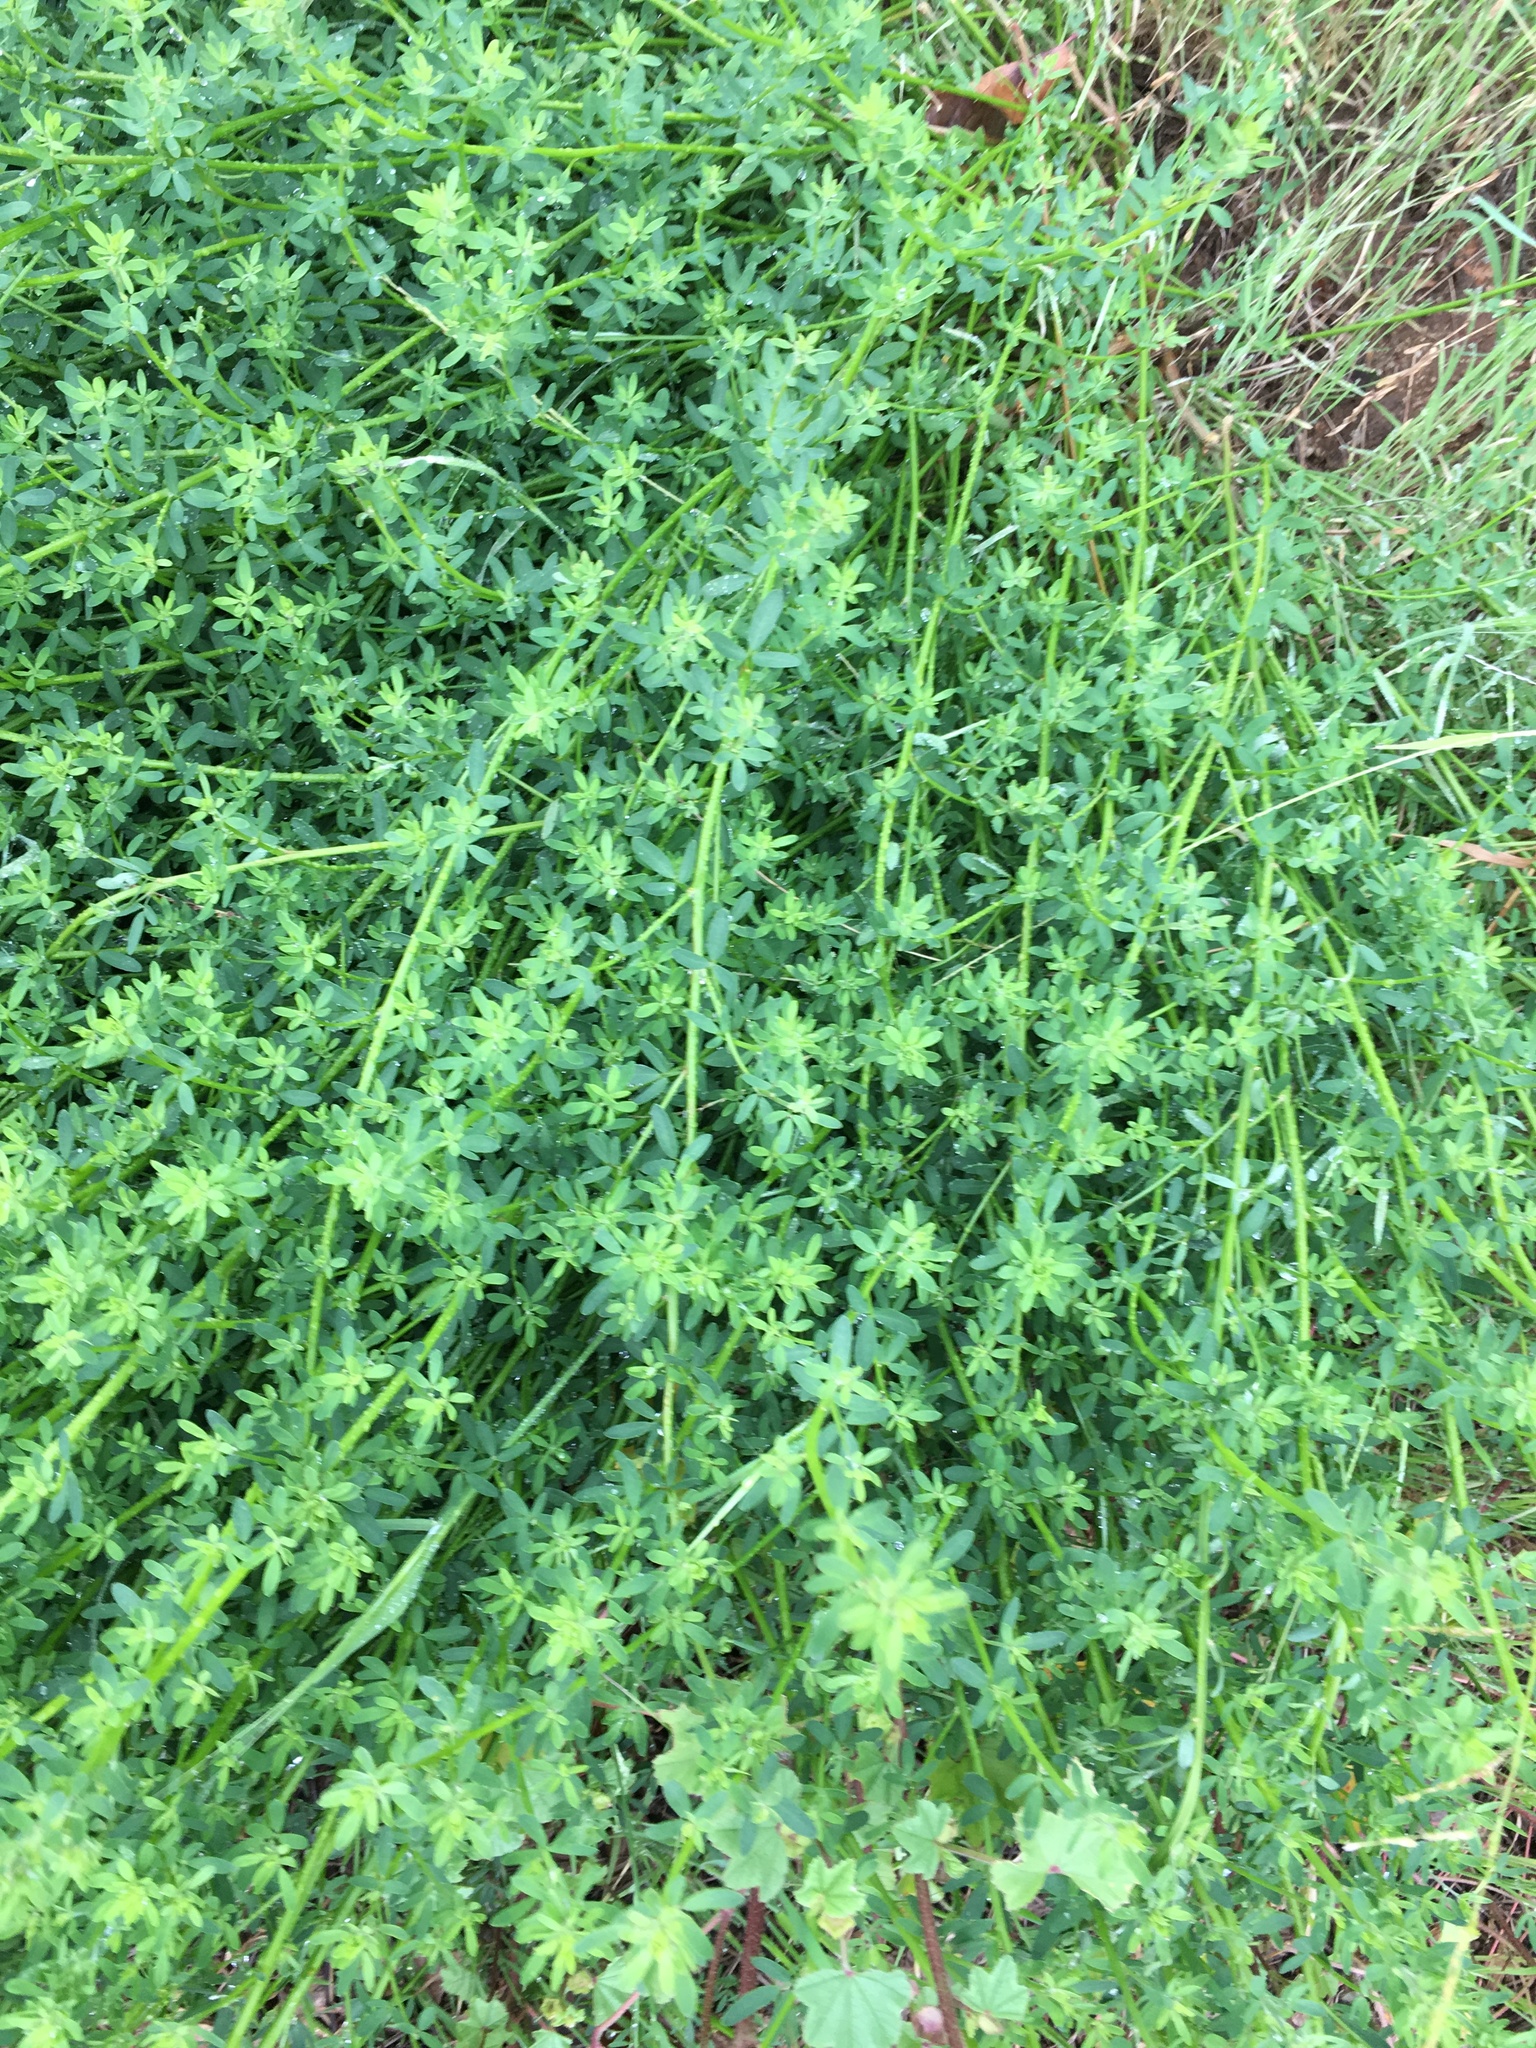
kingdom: Plantae
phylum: Tracheophyta
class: Magnoliopsida
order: Fabales
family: Fabaceae
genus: Acmispon
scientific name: Acmispon glaber
